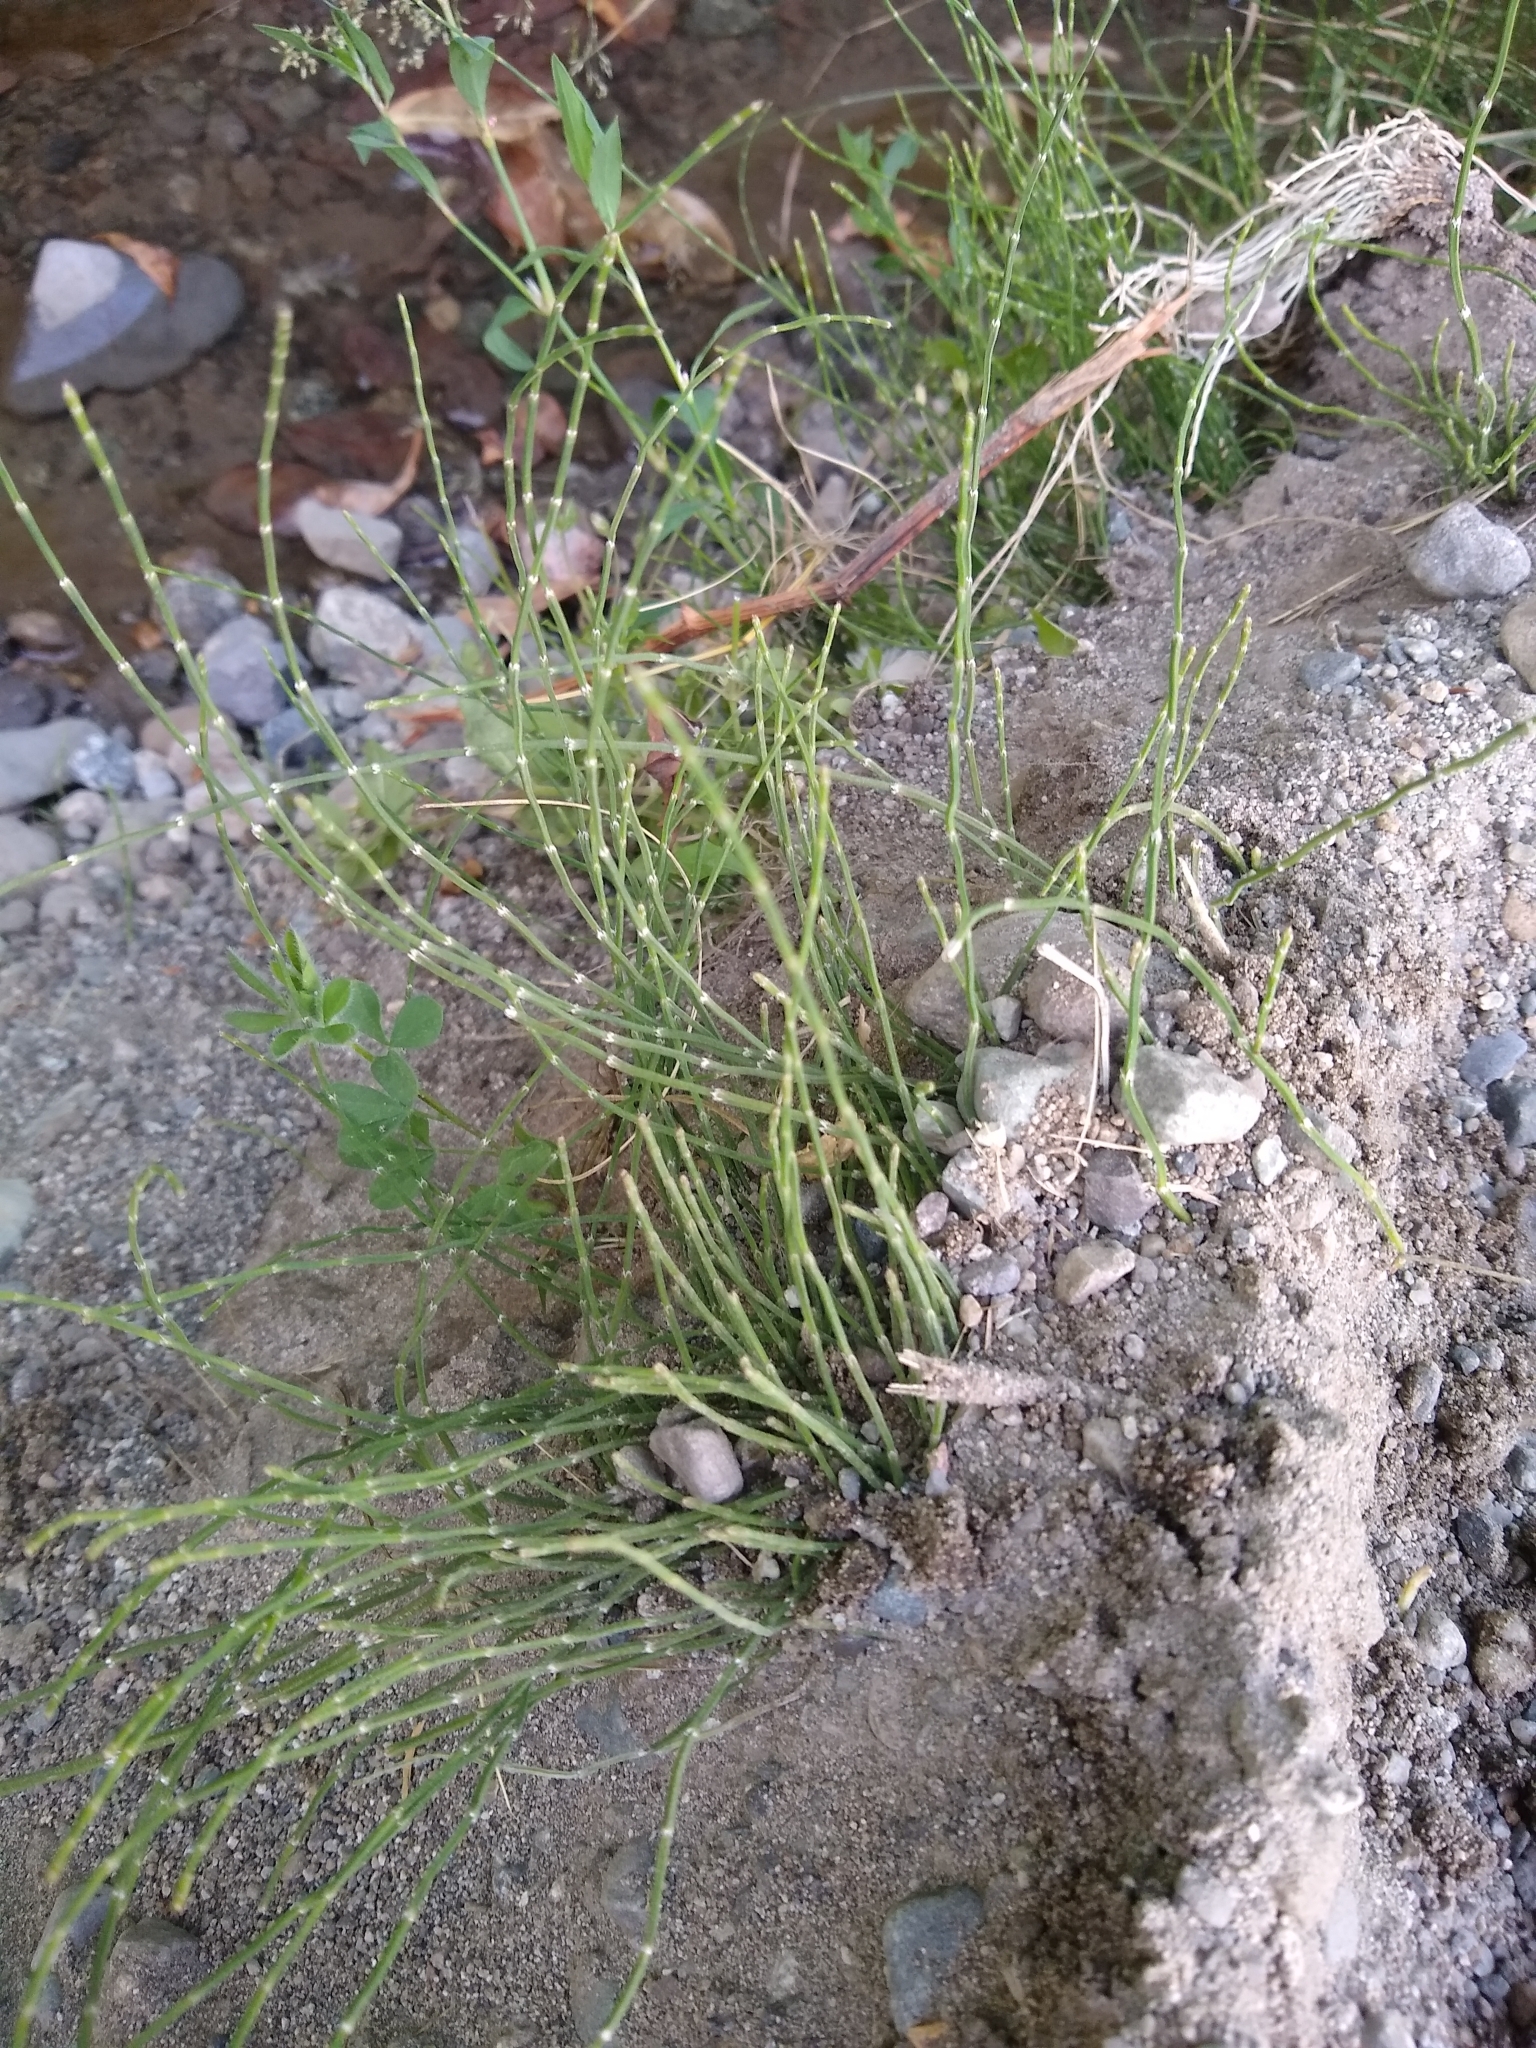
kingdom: Plantae
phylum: Tracheophyta
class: Polypodiopsida
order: Equisetales
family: Equisetaceae
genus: Equisetum
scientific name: Equisetum bogotense
